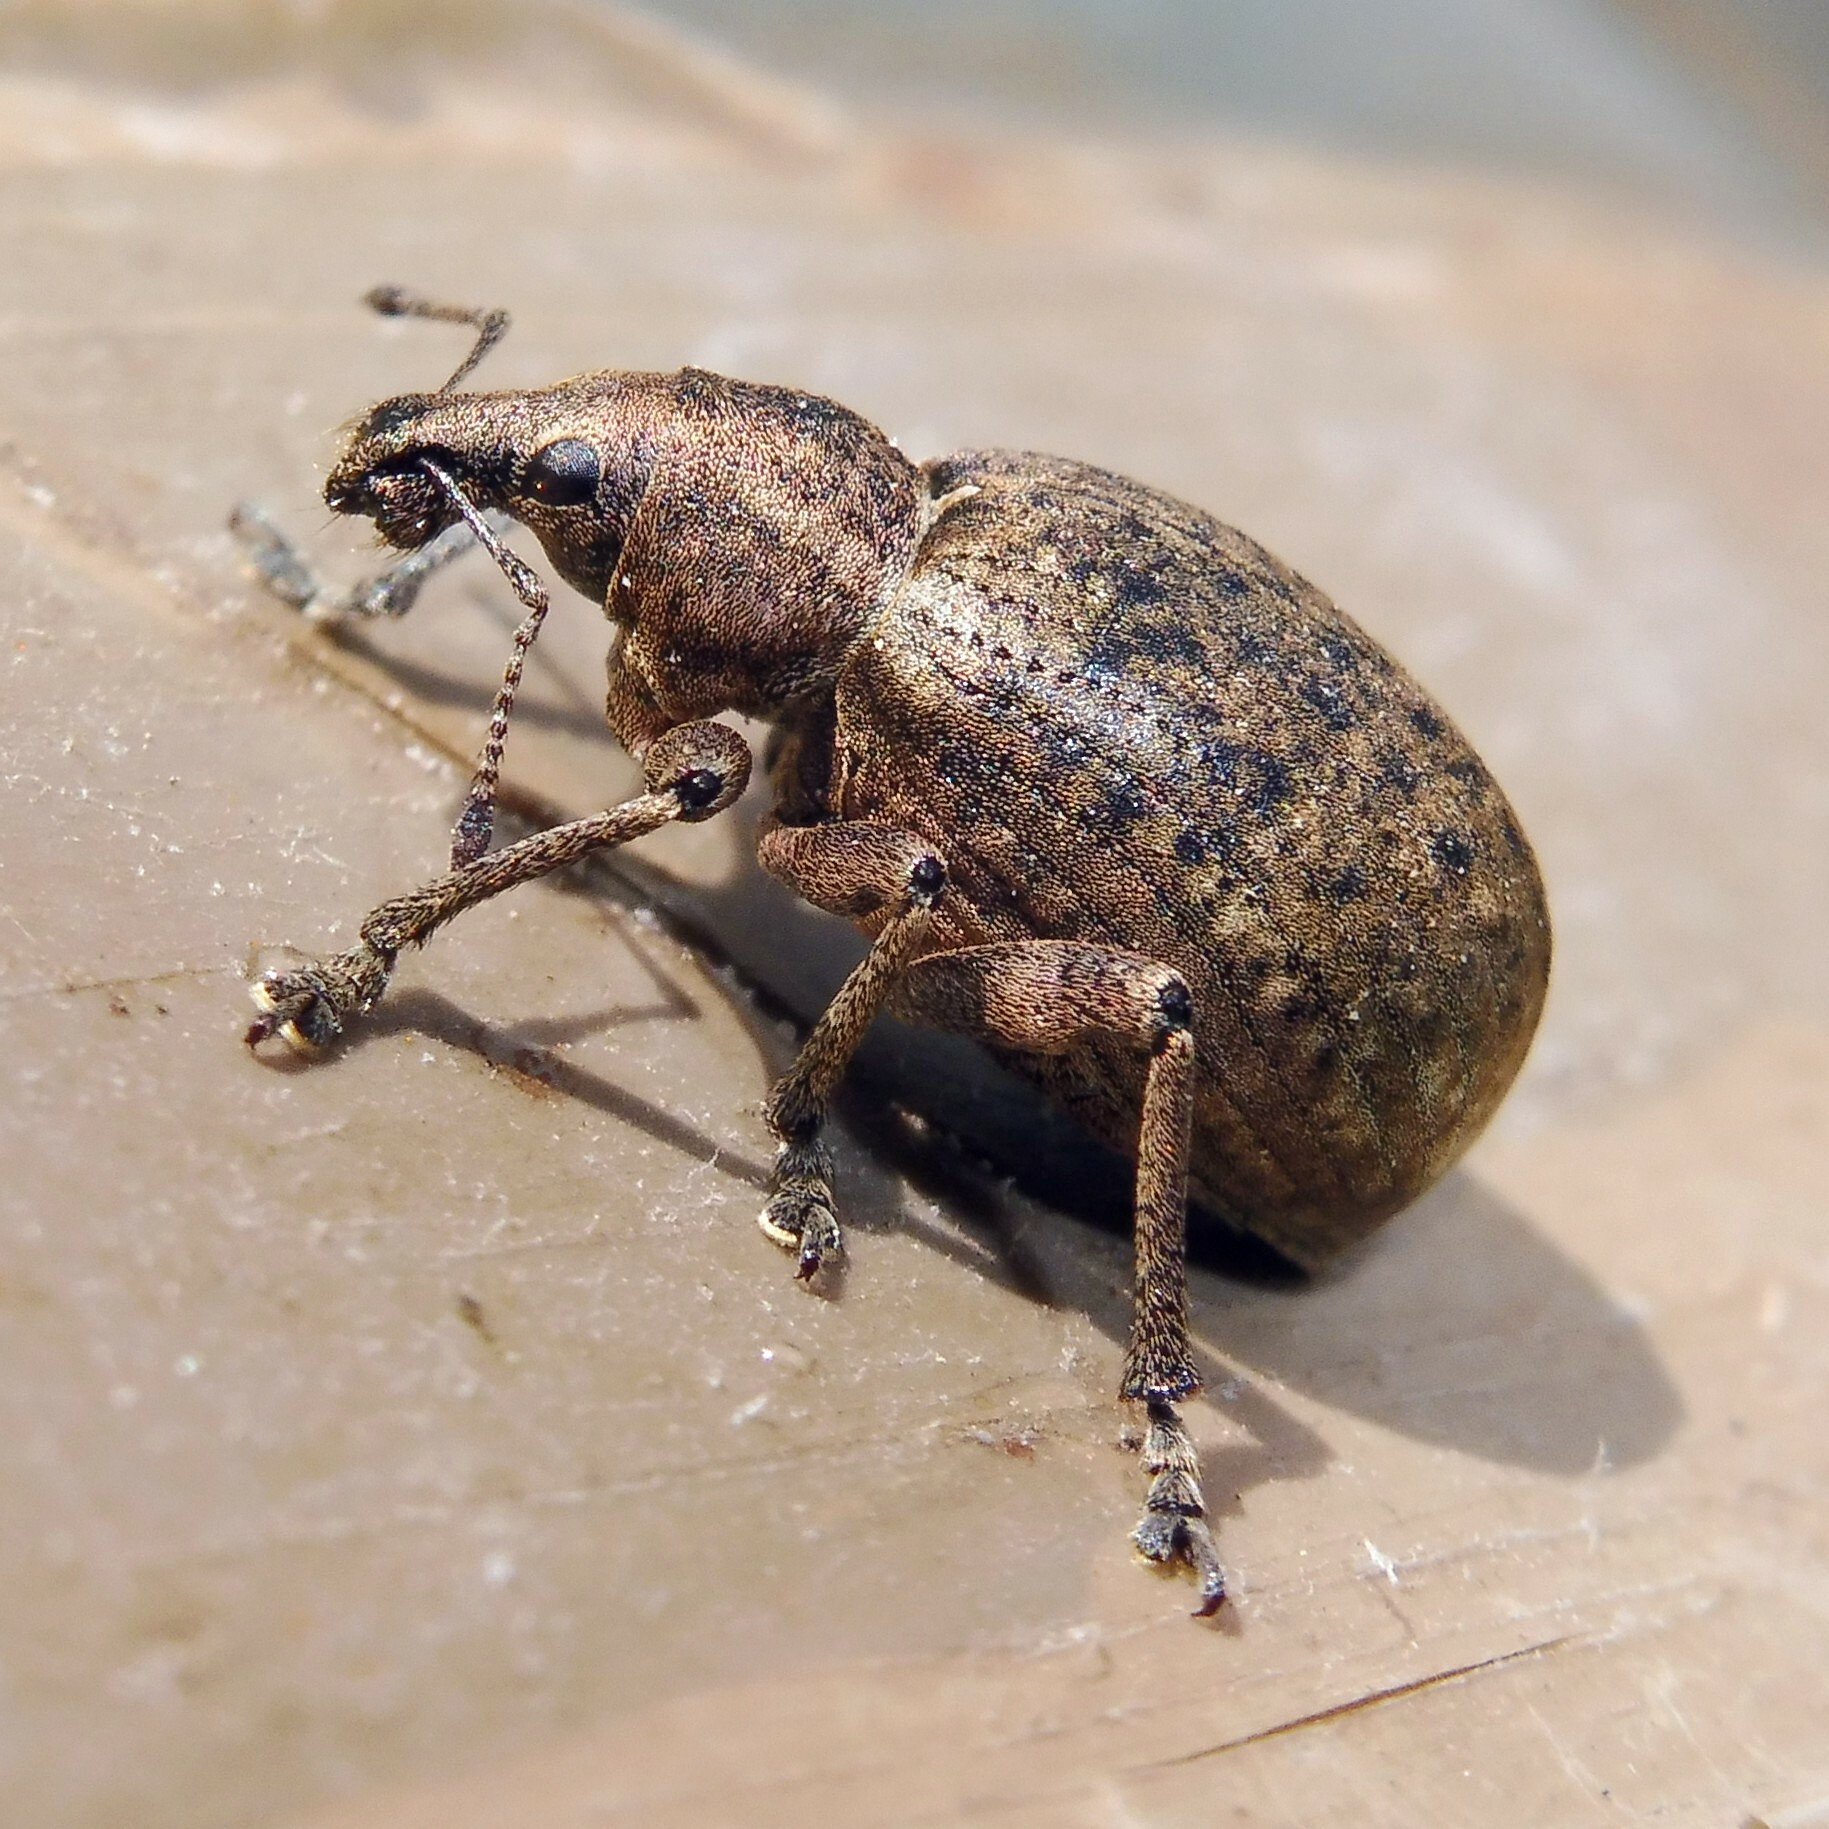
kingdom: Animalia
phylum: Arthropoda
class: Insecta
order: Coleoptera
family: Curculionidae
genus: Liophloeus
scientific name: Liophloeus tessulatus
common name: Weevil
